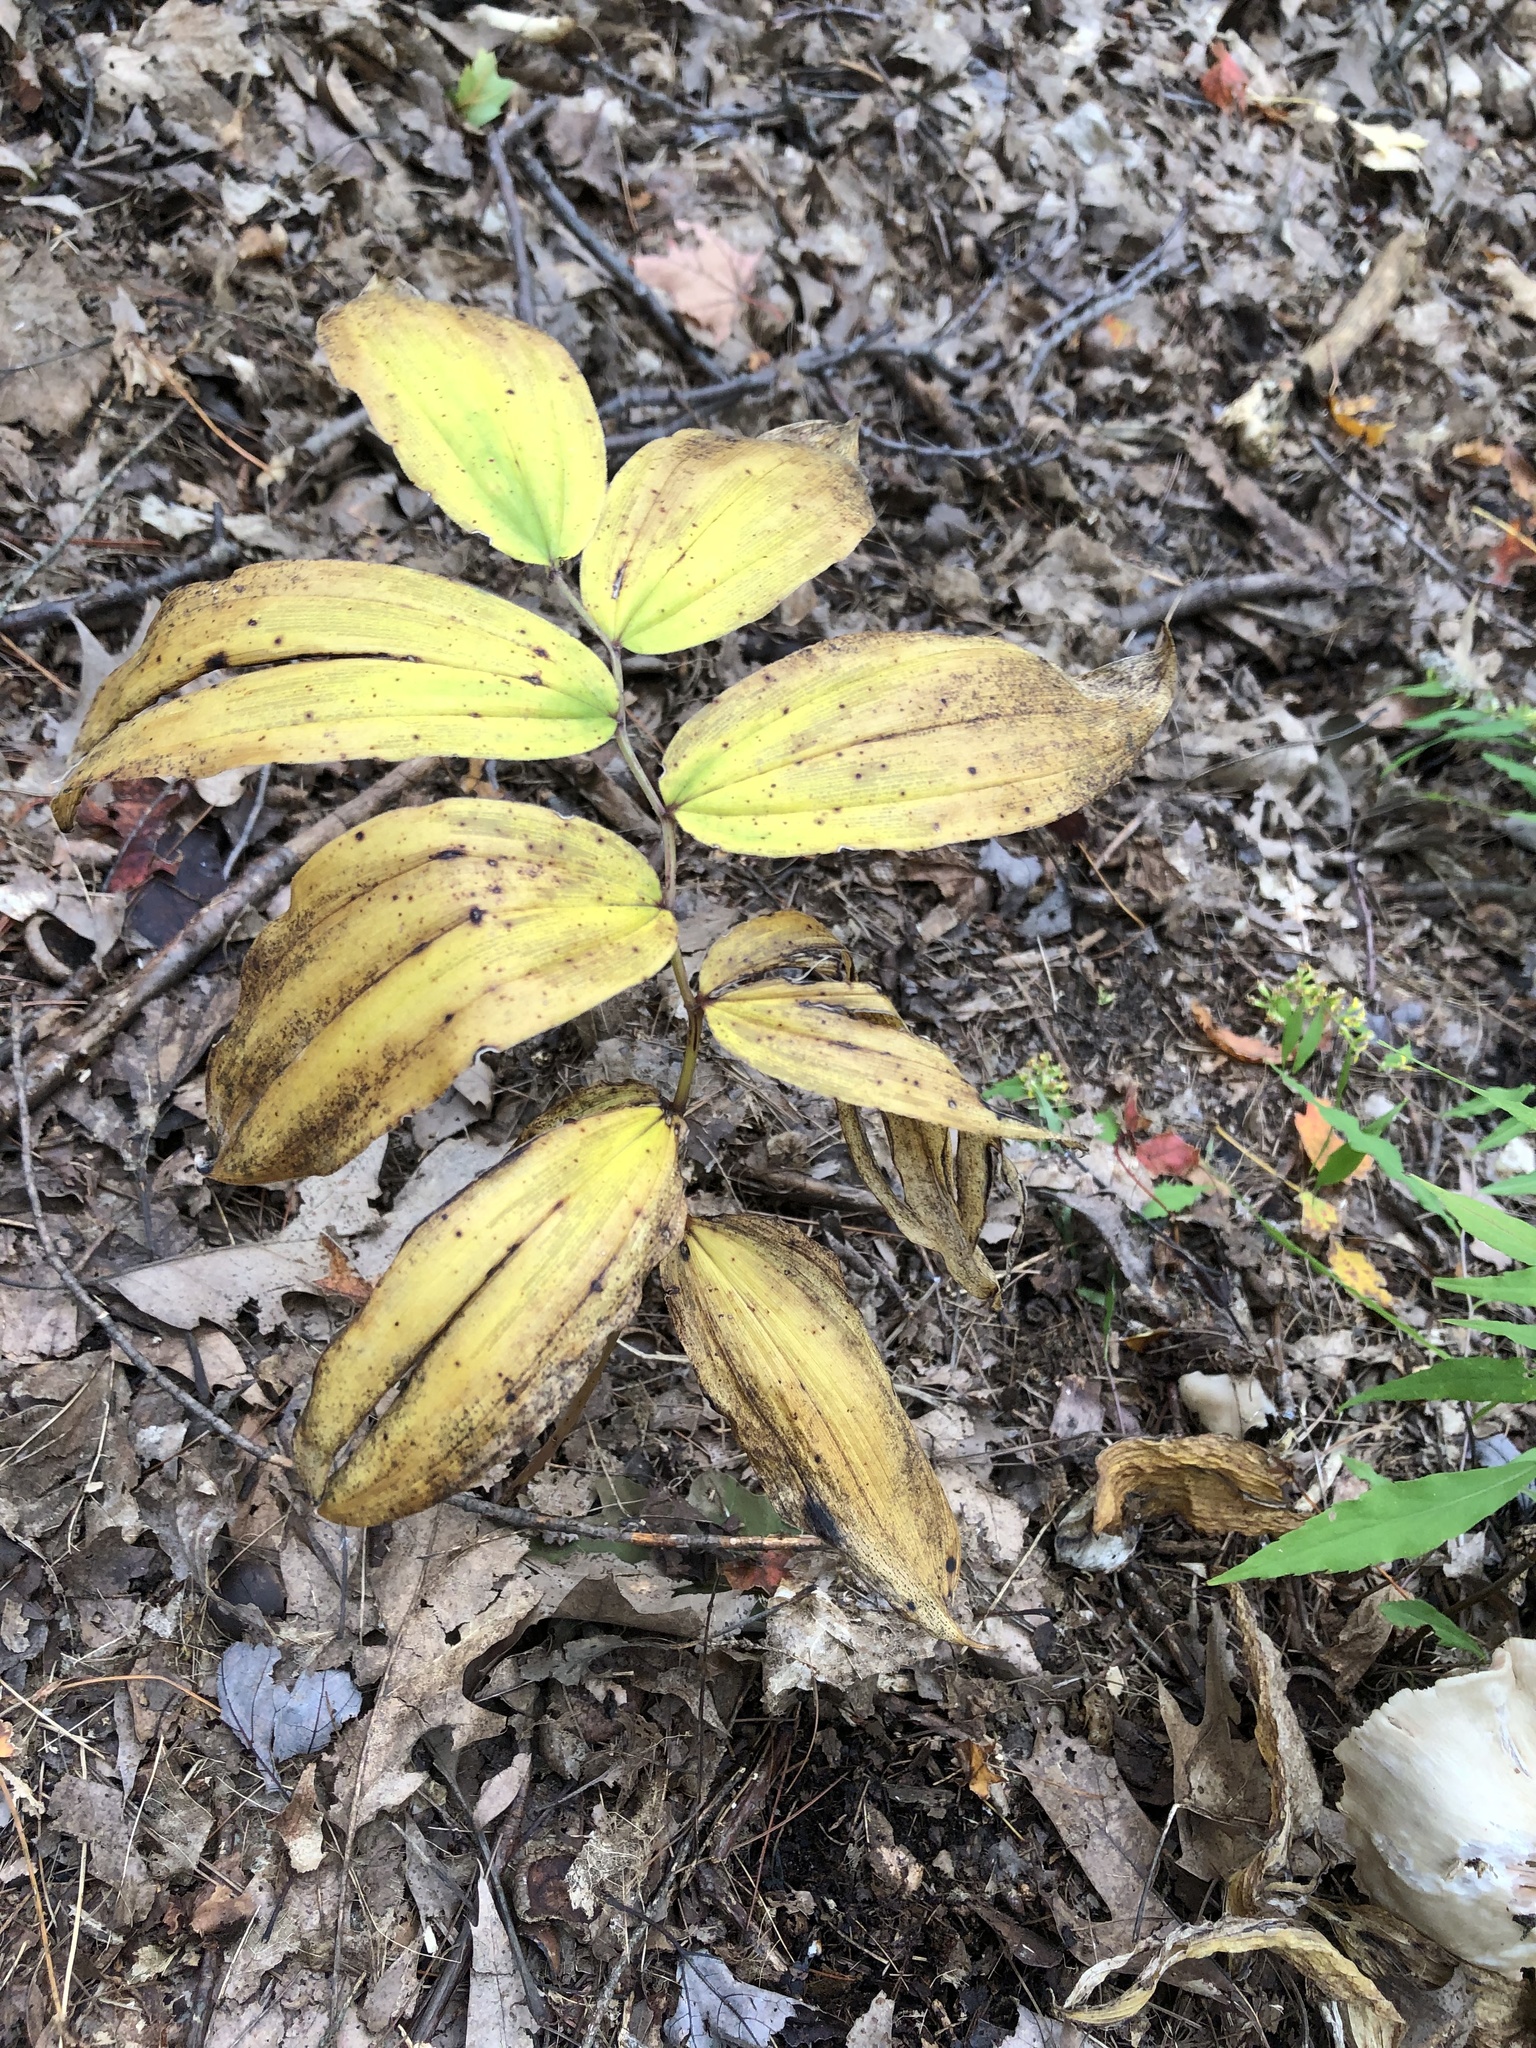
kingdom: Plantae
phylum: Tracheophyta
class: Liliopsida
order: Asparagales
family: Asparagaceae
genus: Maianthemum
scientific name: Maianthemum racemosum
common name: False spikenard
